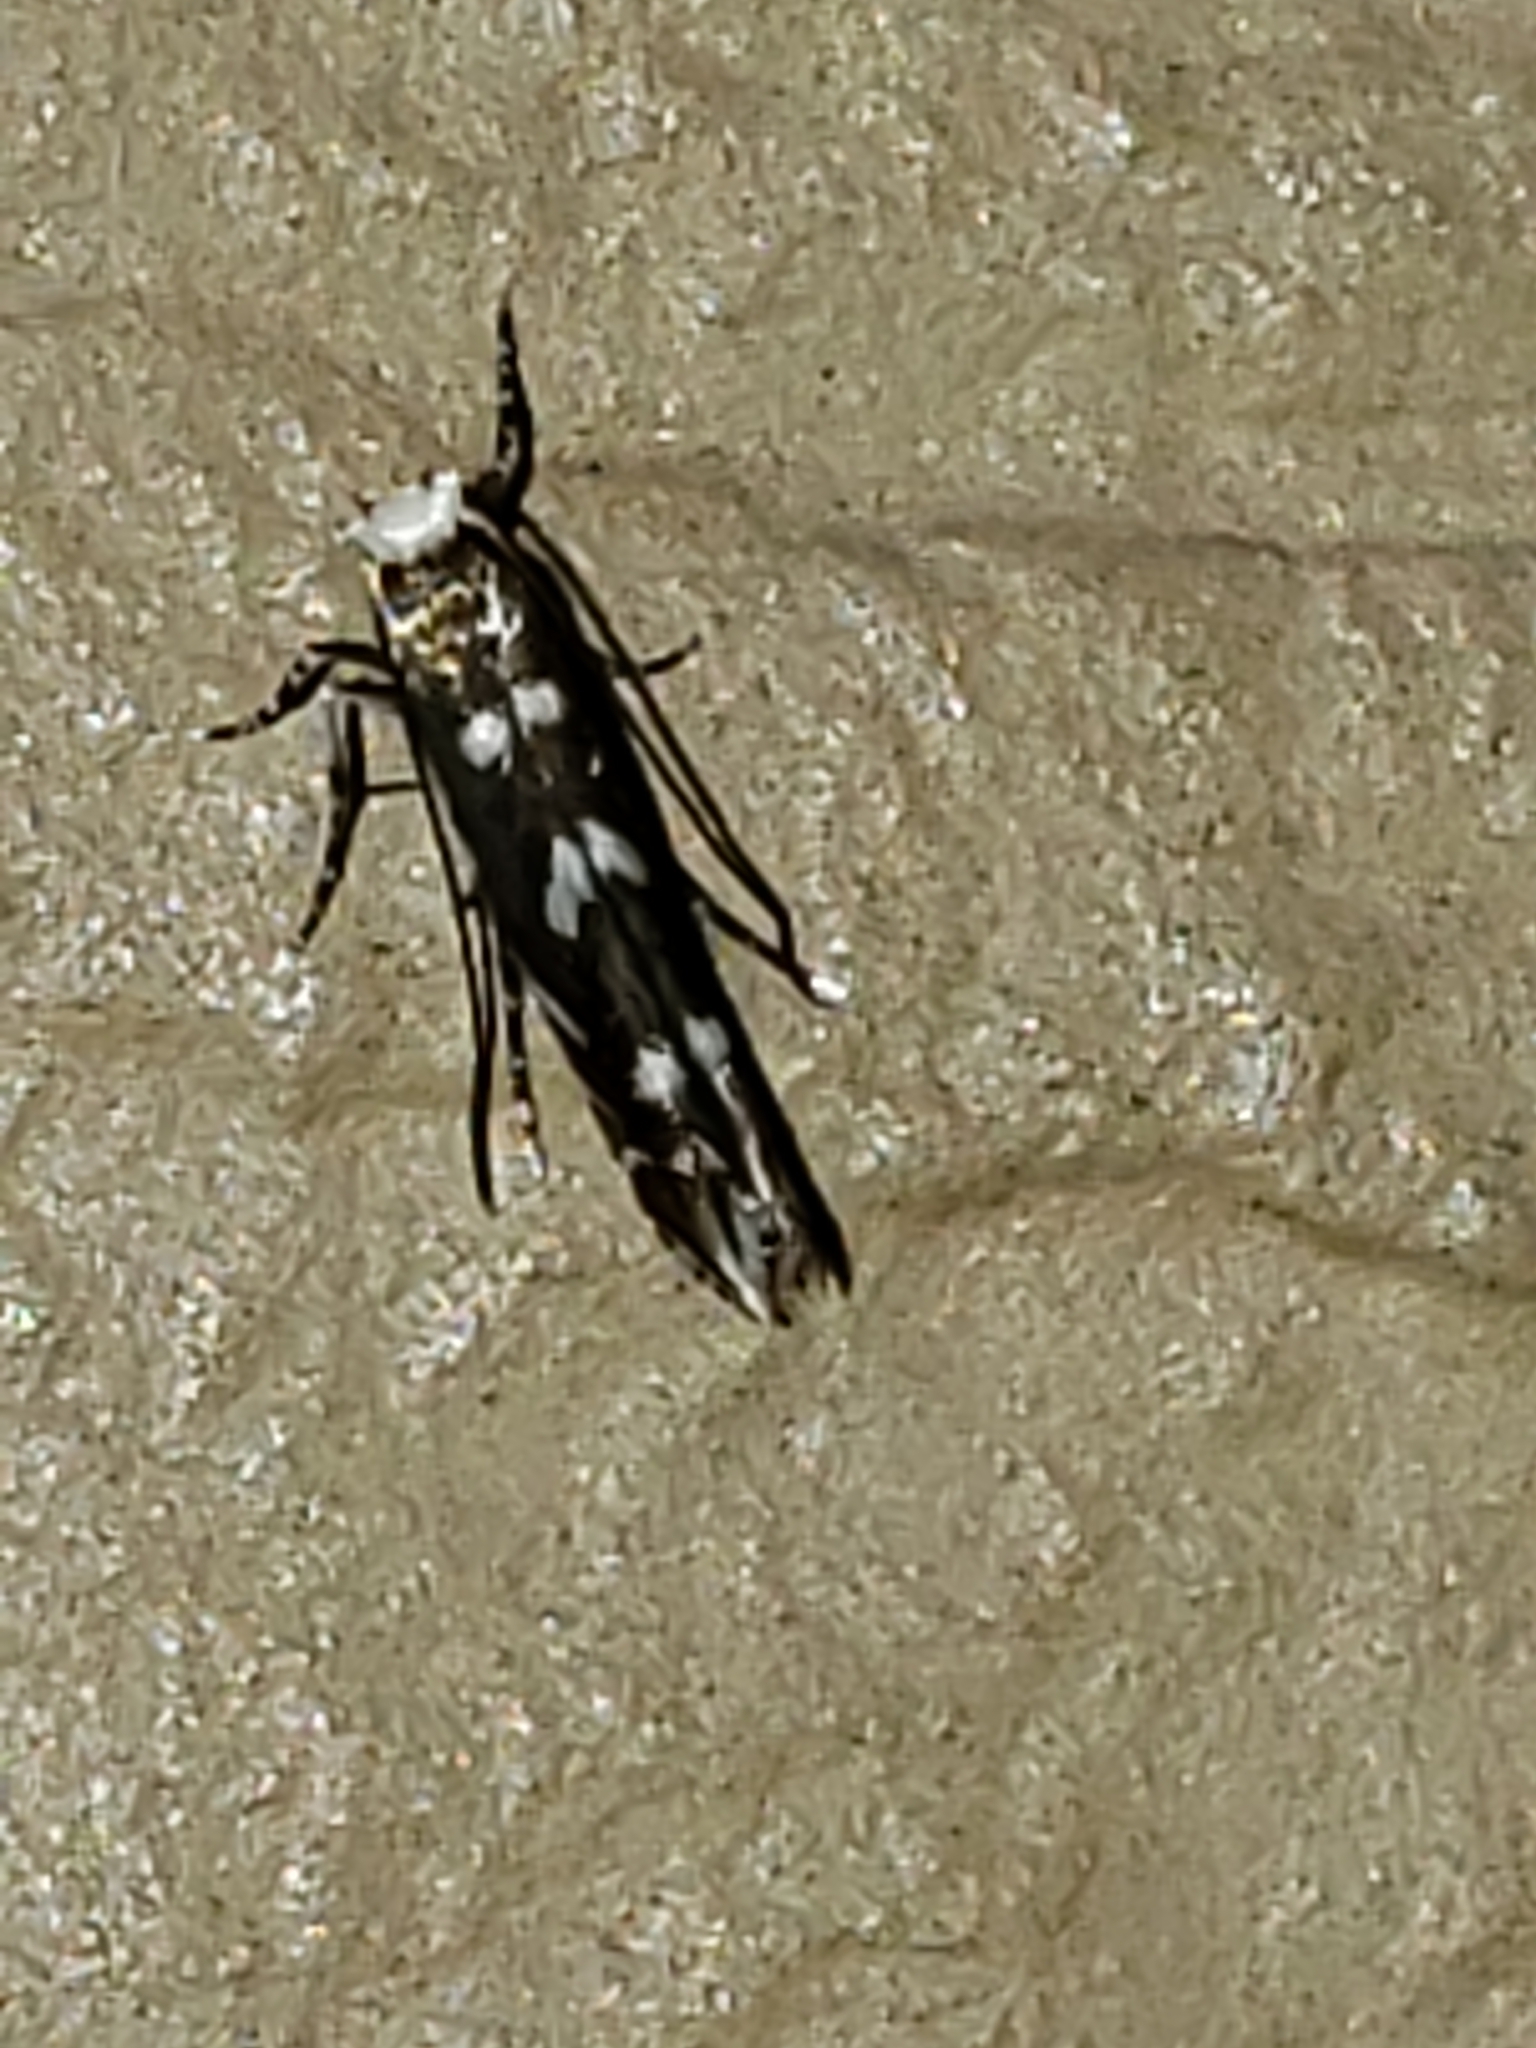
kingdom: Animalia
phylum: Arthropoda
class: Insecta
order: Lepidoptera
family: Gracillariidae
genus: Parectopa
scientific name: Parectopa robiniella
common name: Locust digitate leafminer
